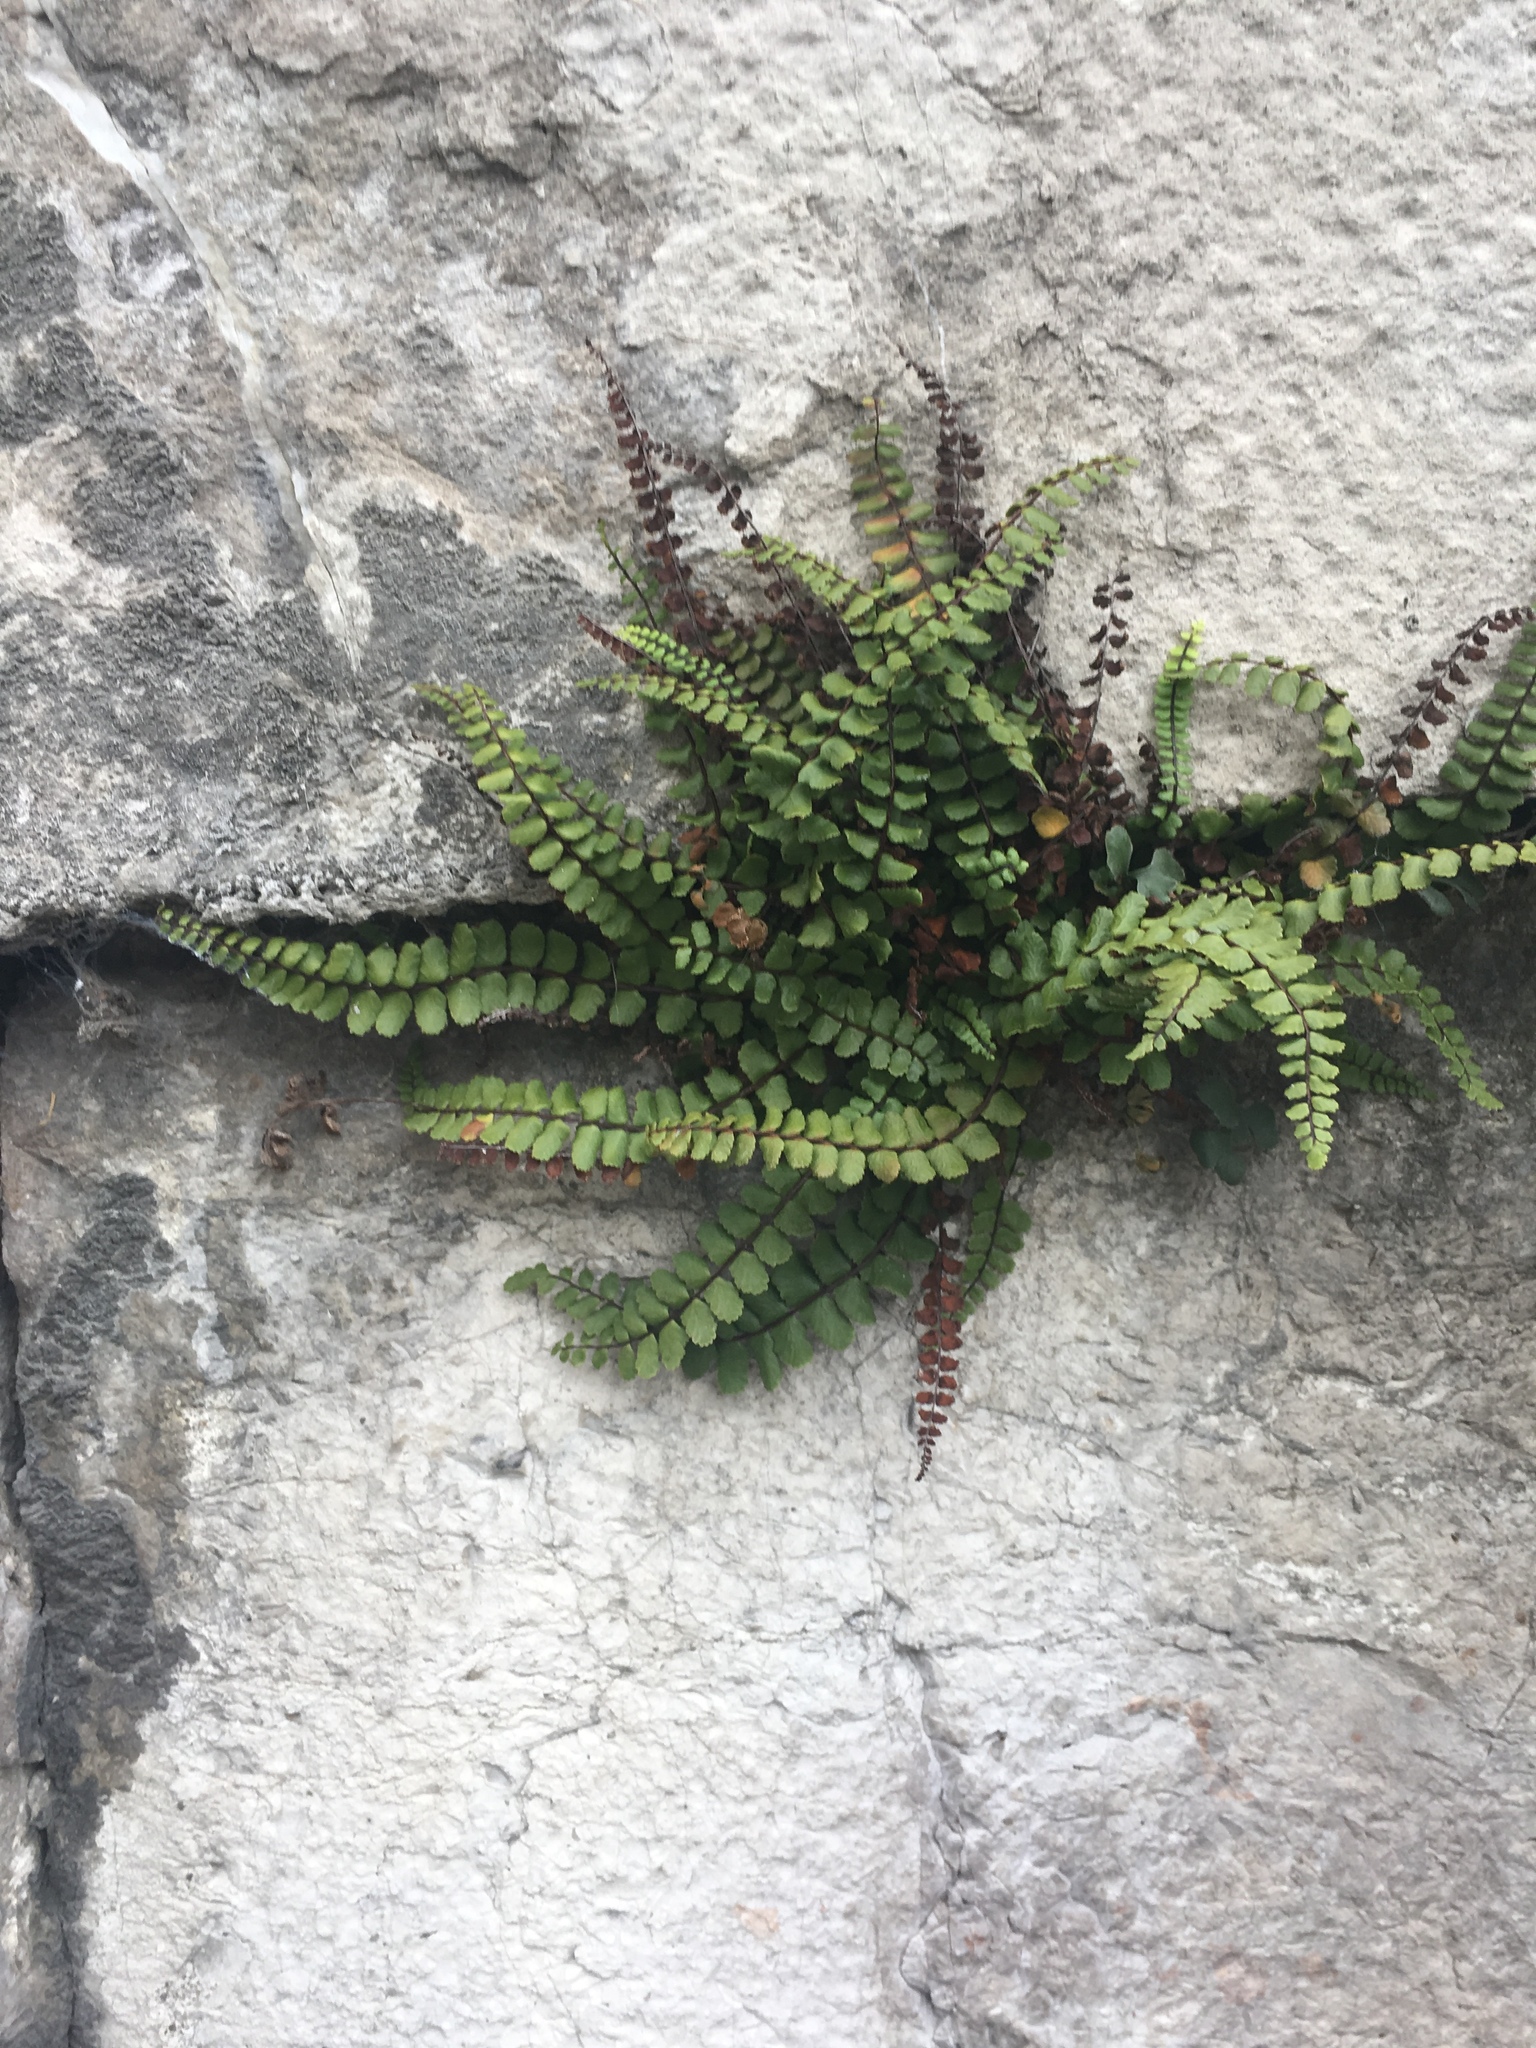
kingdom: Plantae
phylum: Tracheophyta
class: Polypodiopsida
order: Polypodiales
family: Aspleniaceae
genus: Asplenium
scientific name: Asplenium trichomanes
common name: Maidenhair spleenwort
